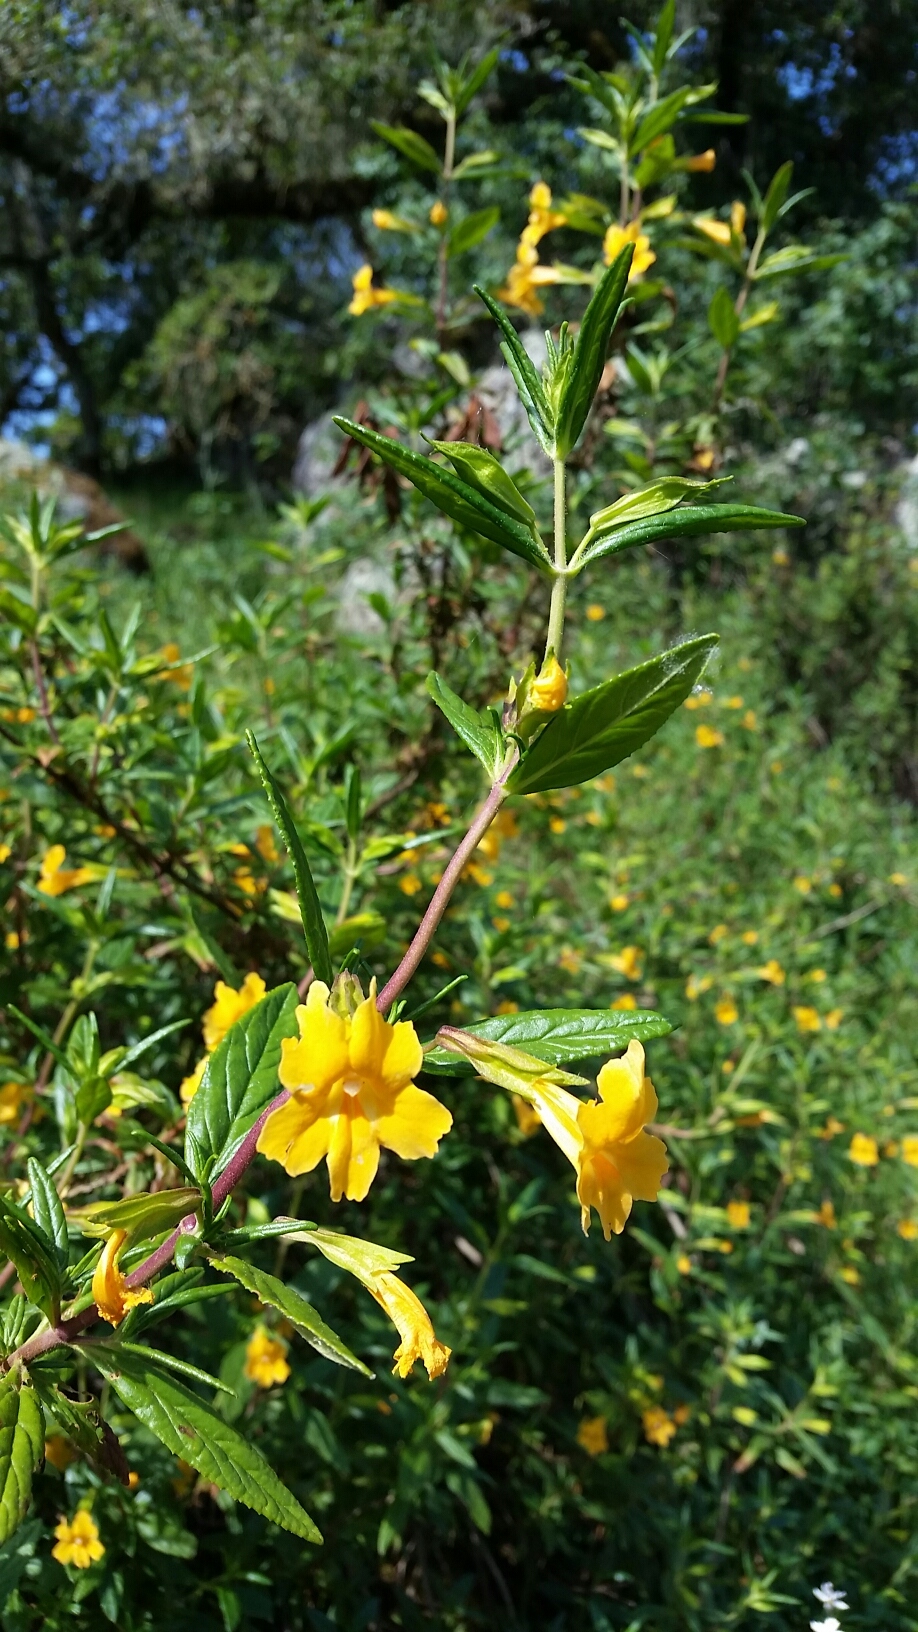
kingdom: Plantae
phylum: Tracheophyta
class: Magnoliopsida
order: Lamiales
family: Phrymaceae
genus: Diplacus
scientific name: Diplacus aurantiacus
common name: Bush monkey-flower
